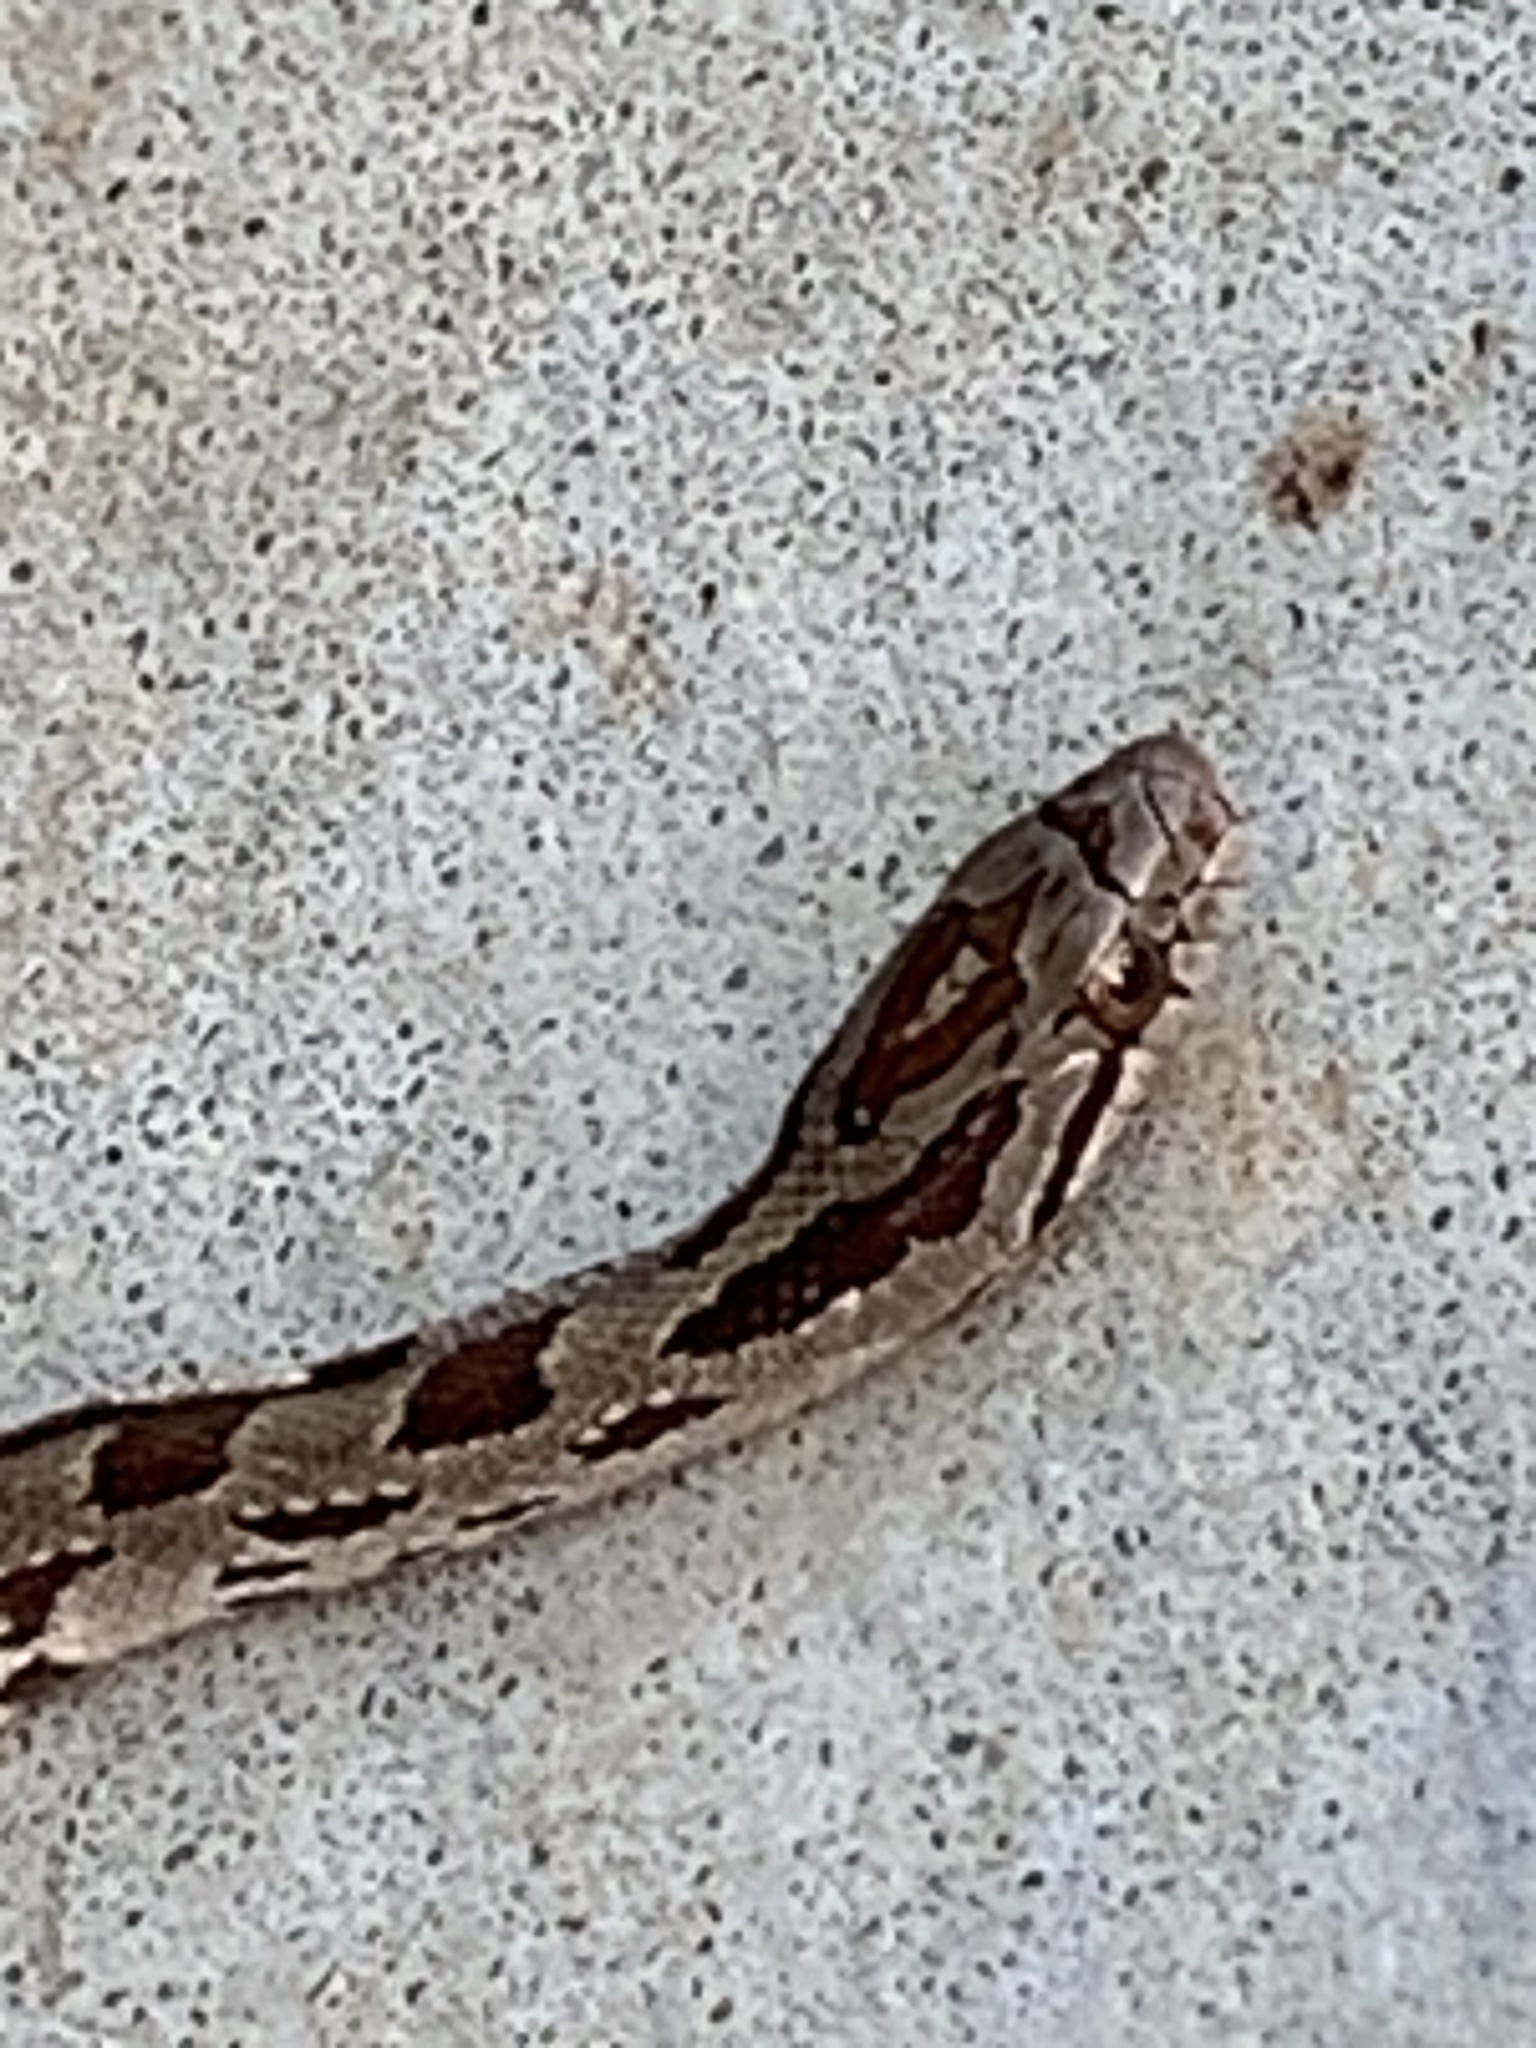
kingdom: Animalia
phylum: Chordata
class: Squamata
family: Colubridae
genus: Lampropeltis
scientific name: Lampropeltis calligaster
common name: Prairie kingsnake
